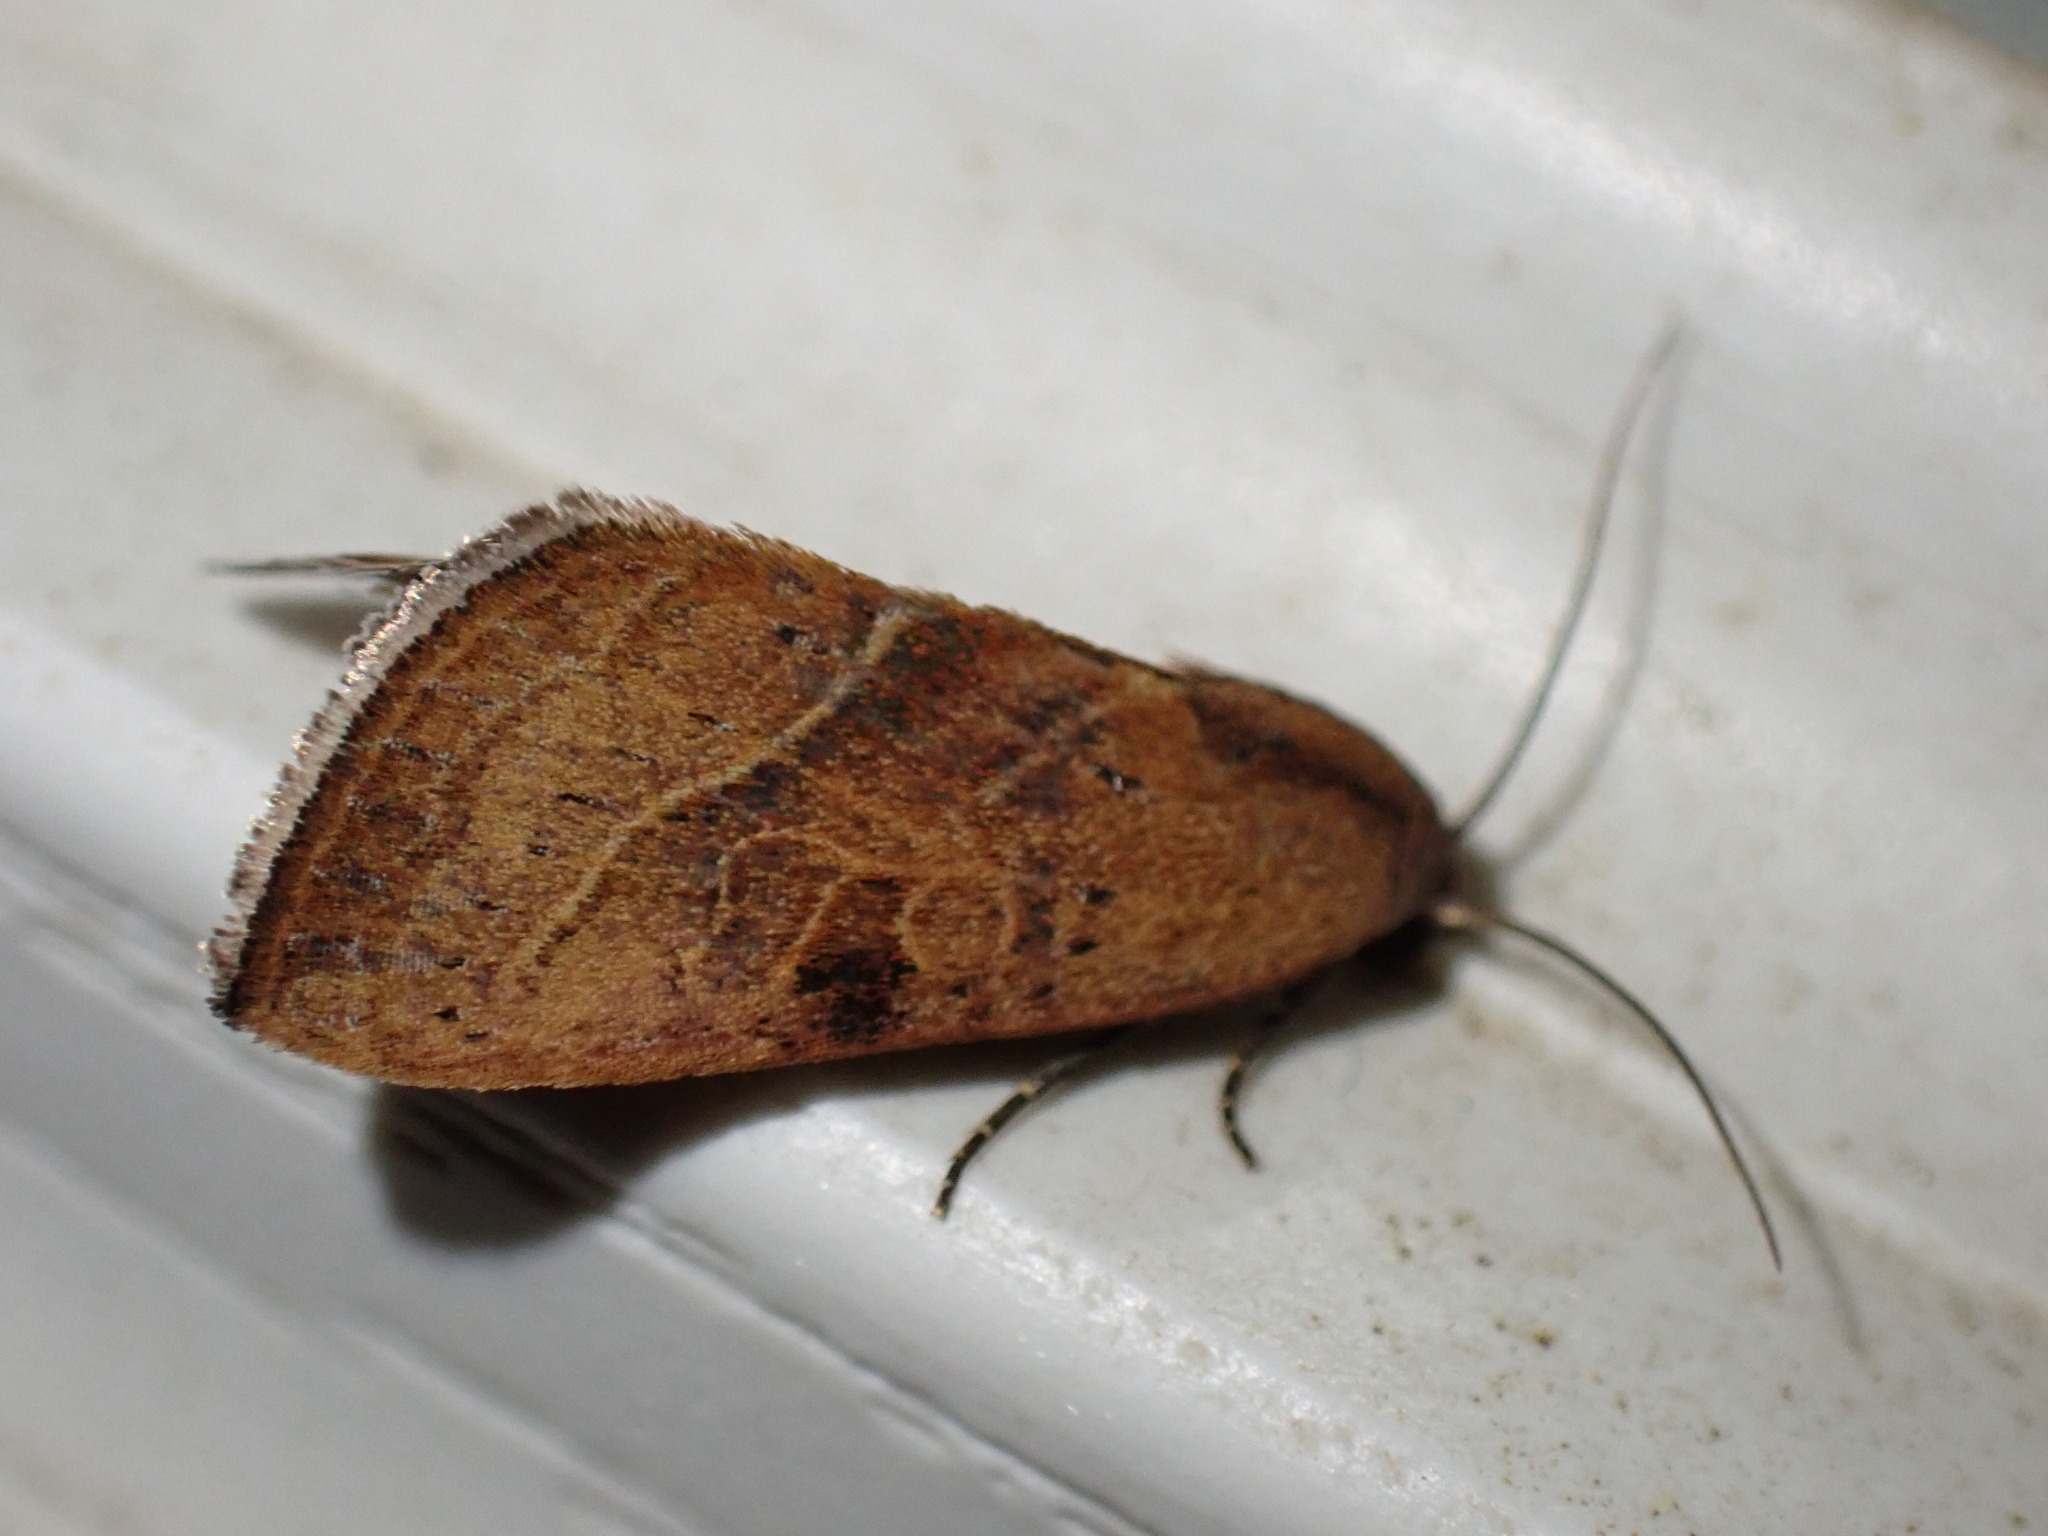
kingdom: Animalia
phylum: Arthropoda
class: Insecta
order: Lepidoptera
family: Noctuidae
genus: Galgula
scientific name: Galgula partita
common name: Wedgeling
